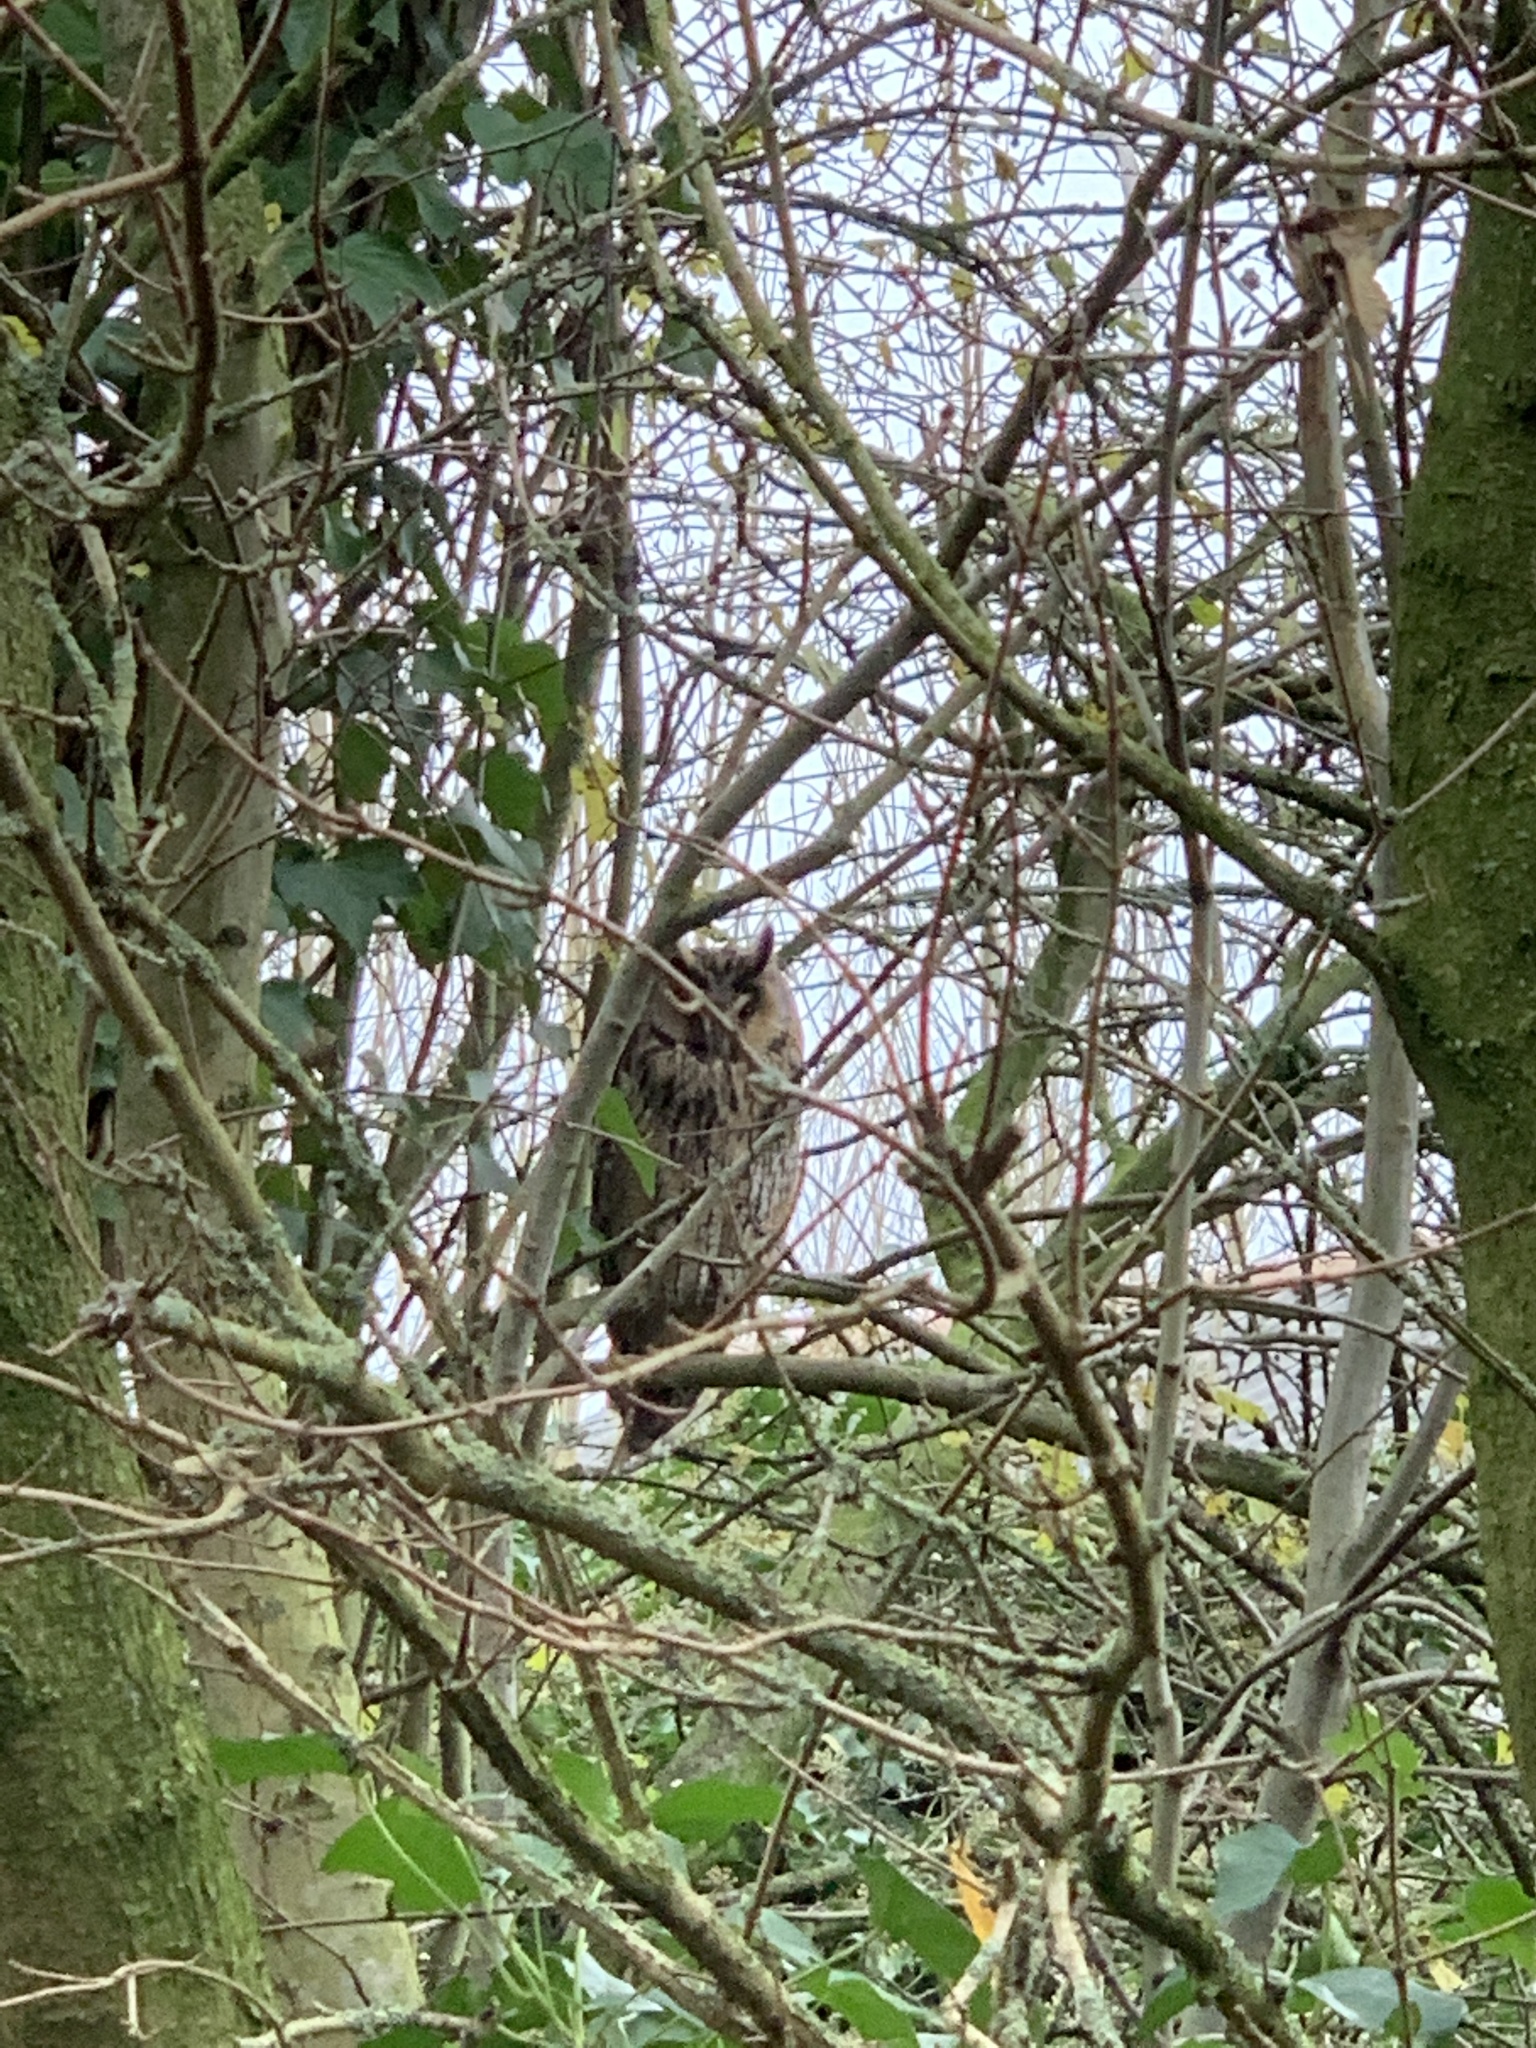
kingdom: Animalia
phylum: Chordata
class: Aves
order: Strigiformes
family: Strigidae
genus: Asio
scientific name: Asio otus
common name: Long-eared owl
